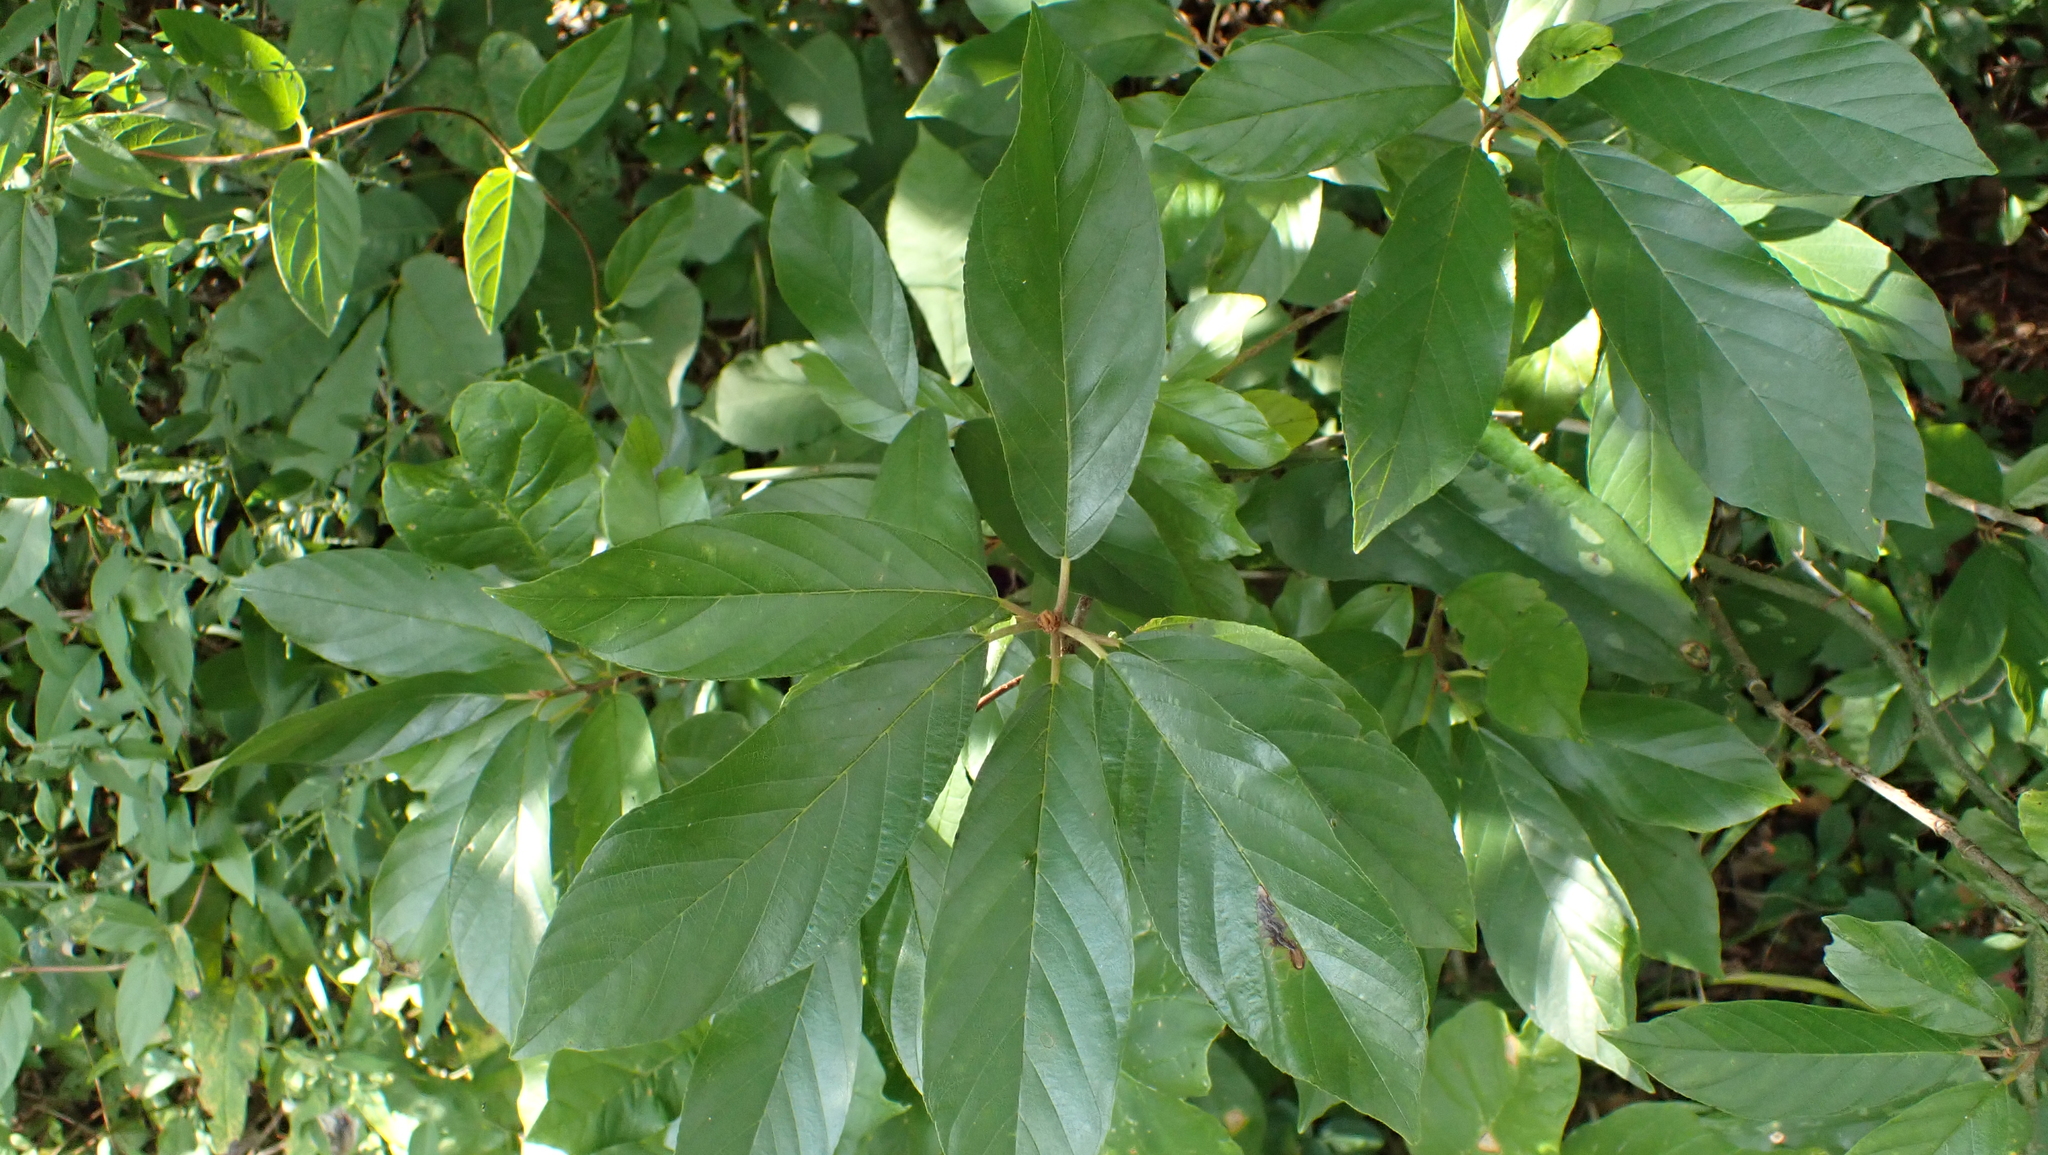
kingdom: Plantae
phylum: Tracheophyta
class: Magnoliopsida
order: Rosales
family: Rhamnaceae
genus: Frangula
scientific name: Frangula caroliniana
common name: Carolina buckthorn
